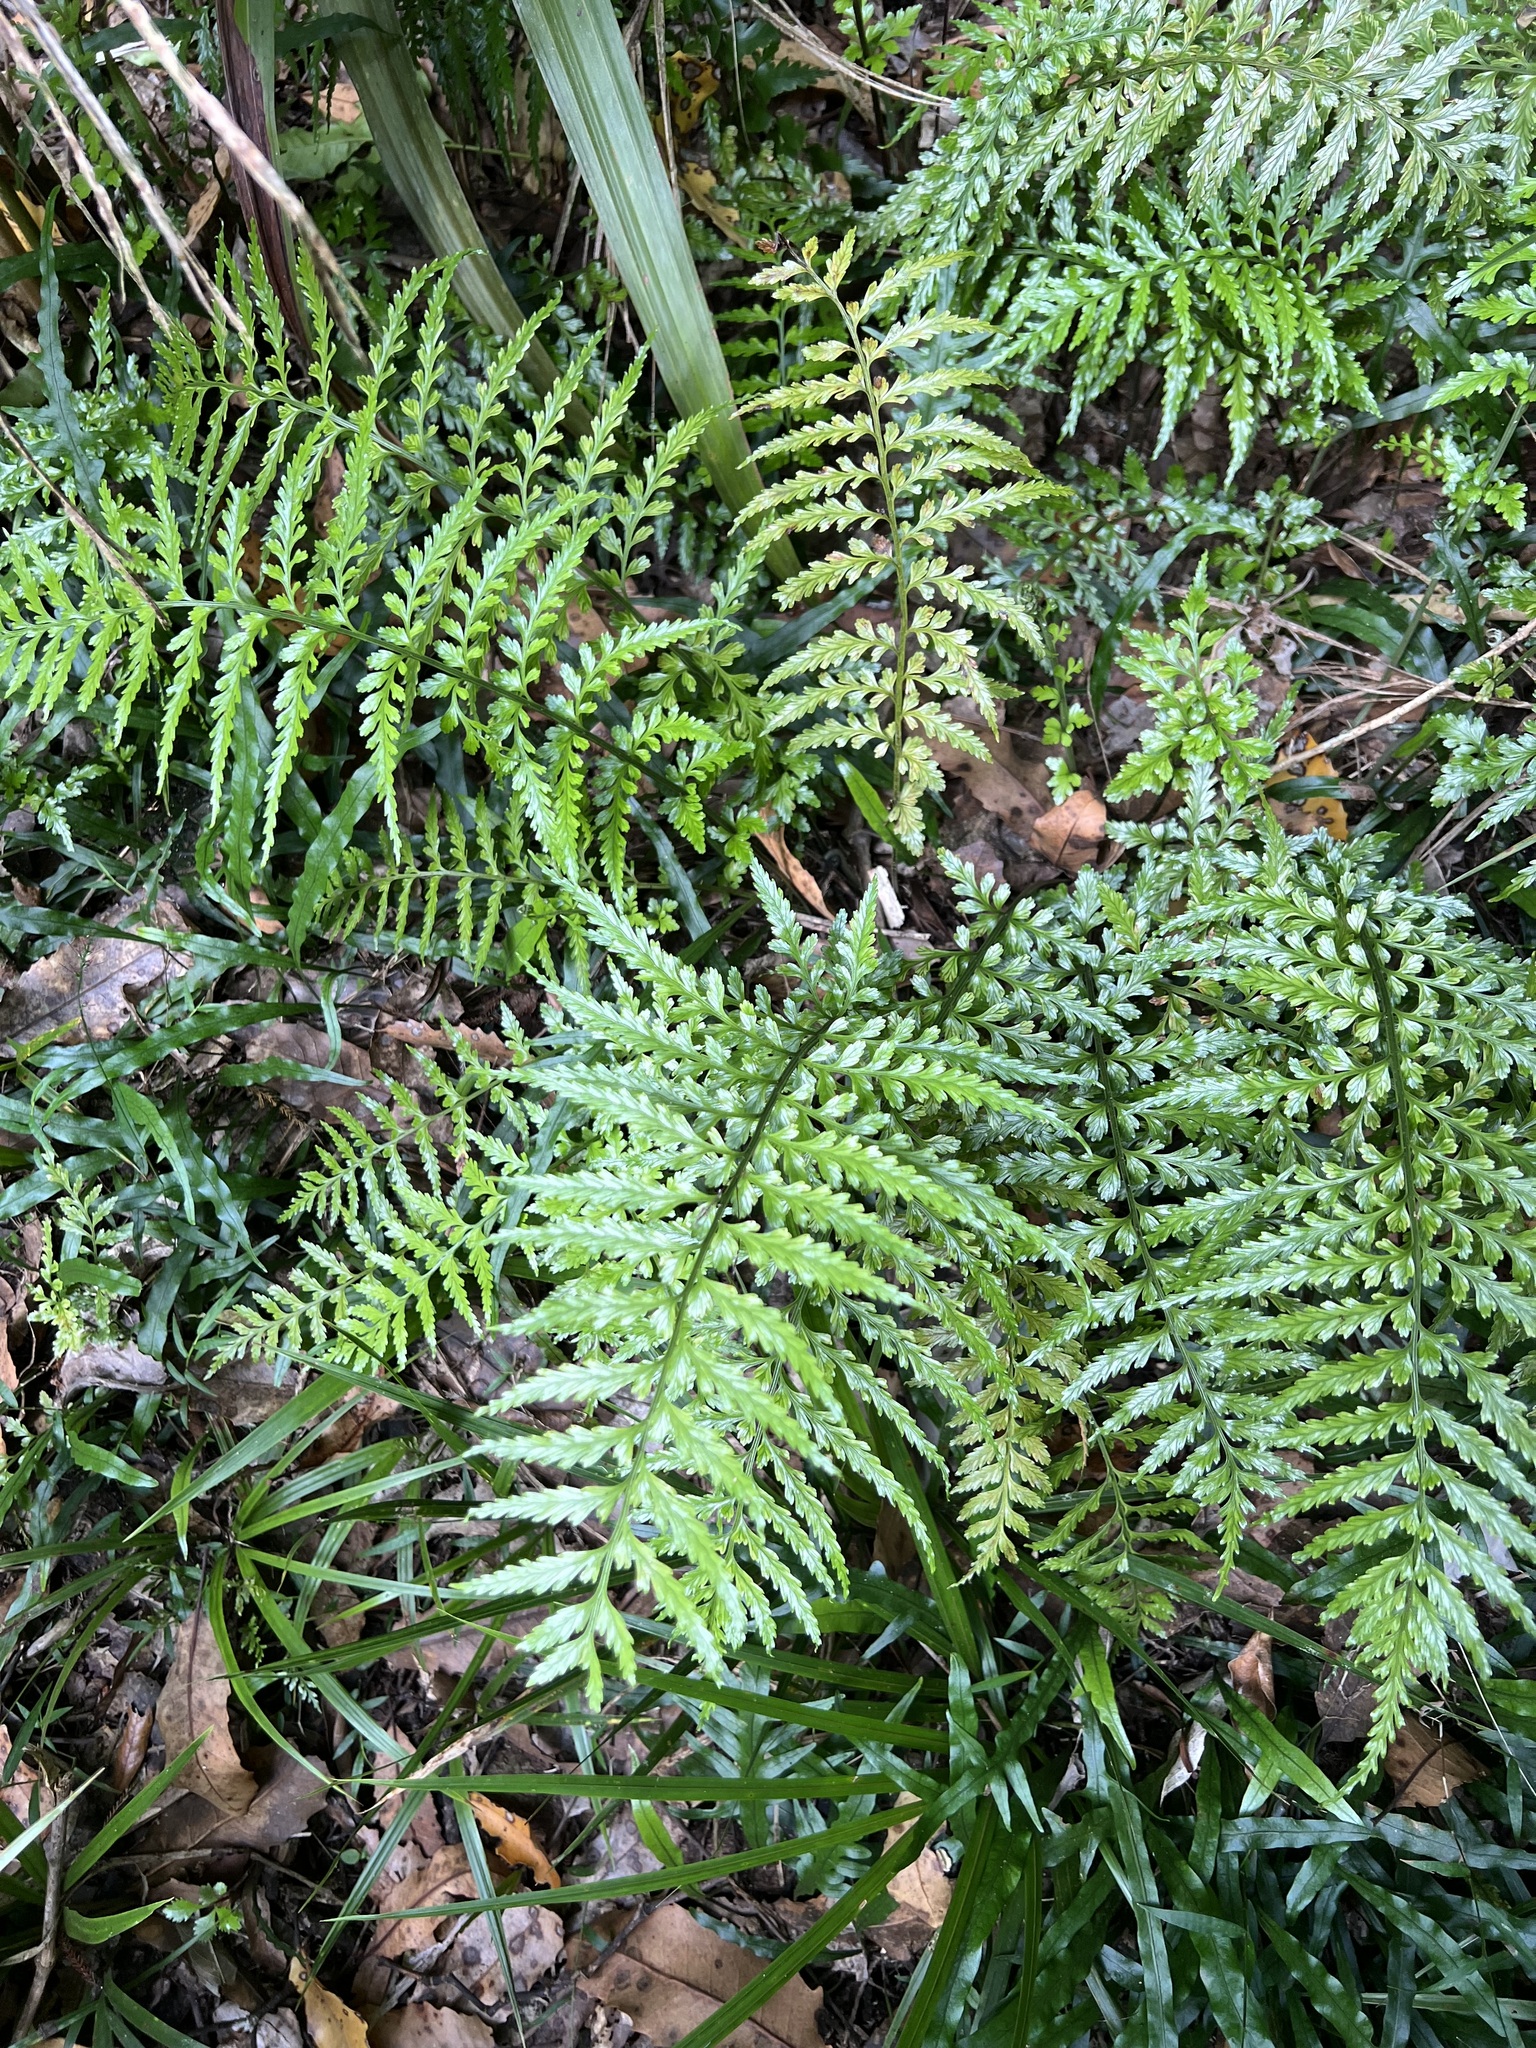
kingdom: Plantae
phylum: Tracheophyta
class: Polypodiopsida
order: Polypodiales
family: Aspleniaceae
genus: Asplenium
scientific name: Asplenium lamprophyllum
